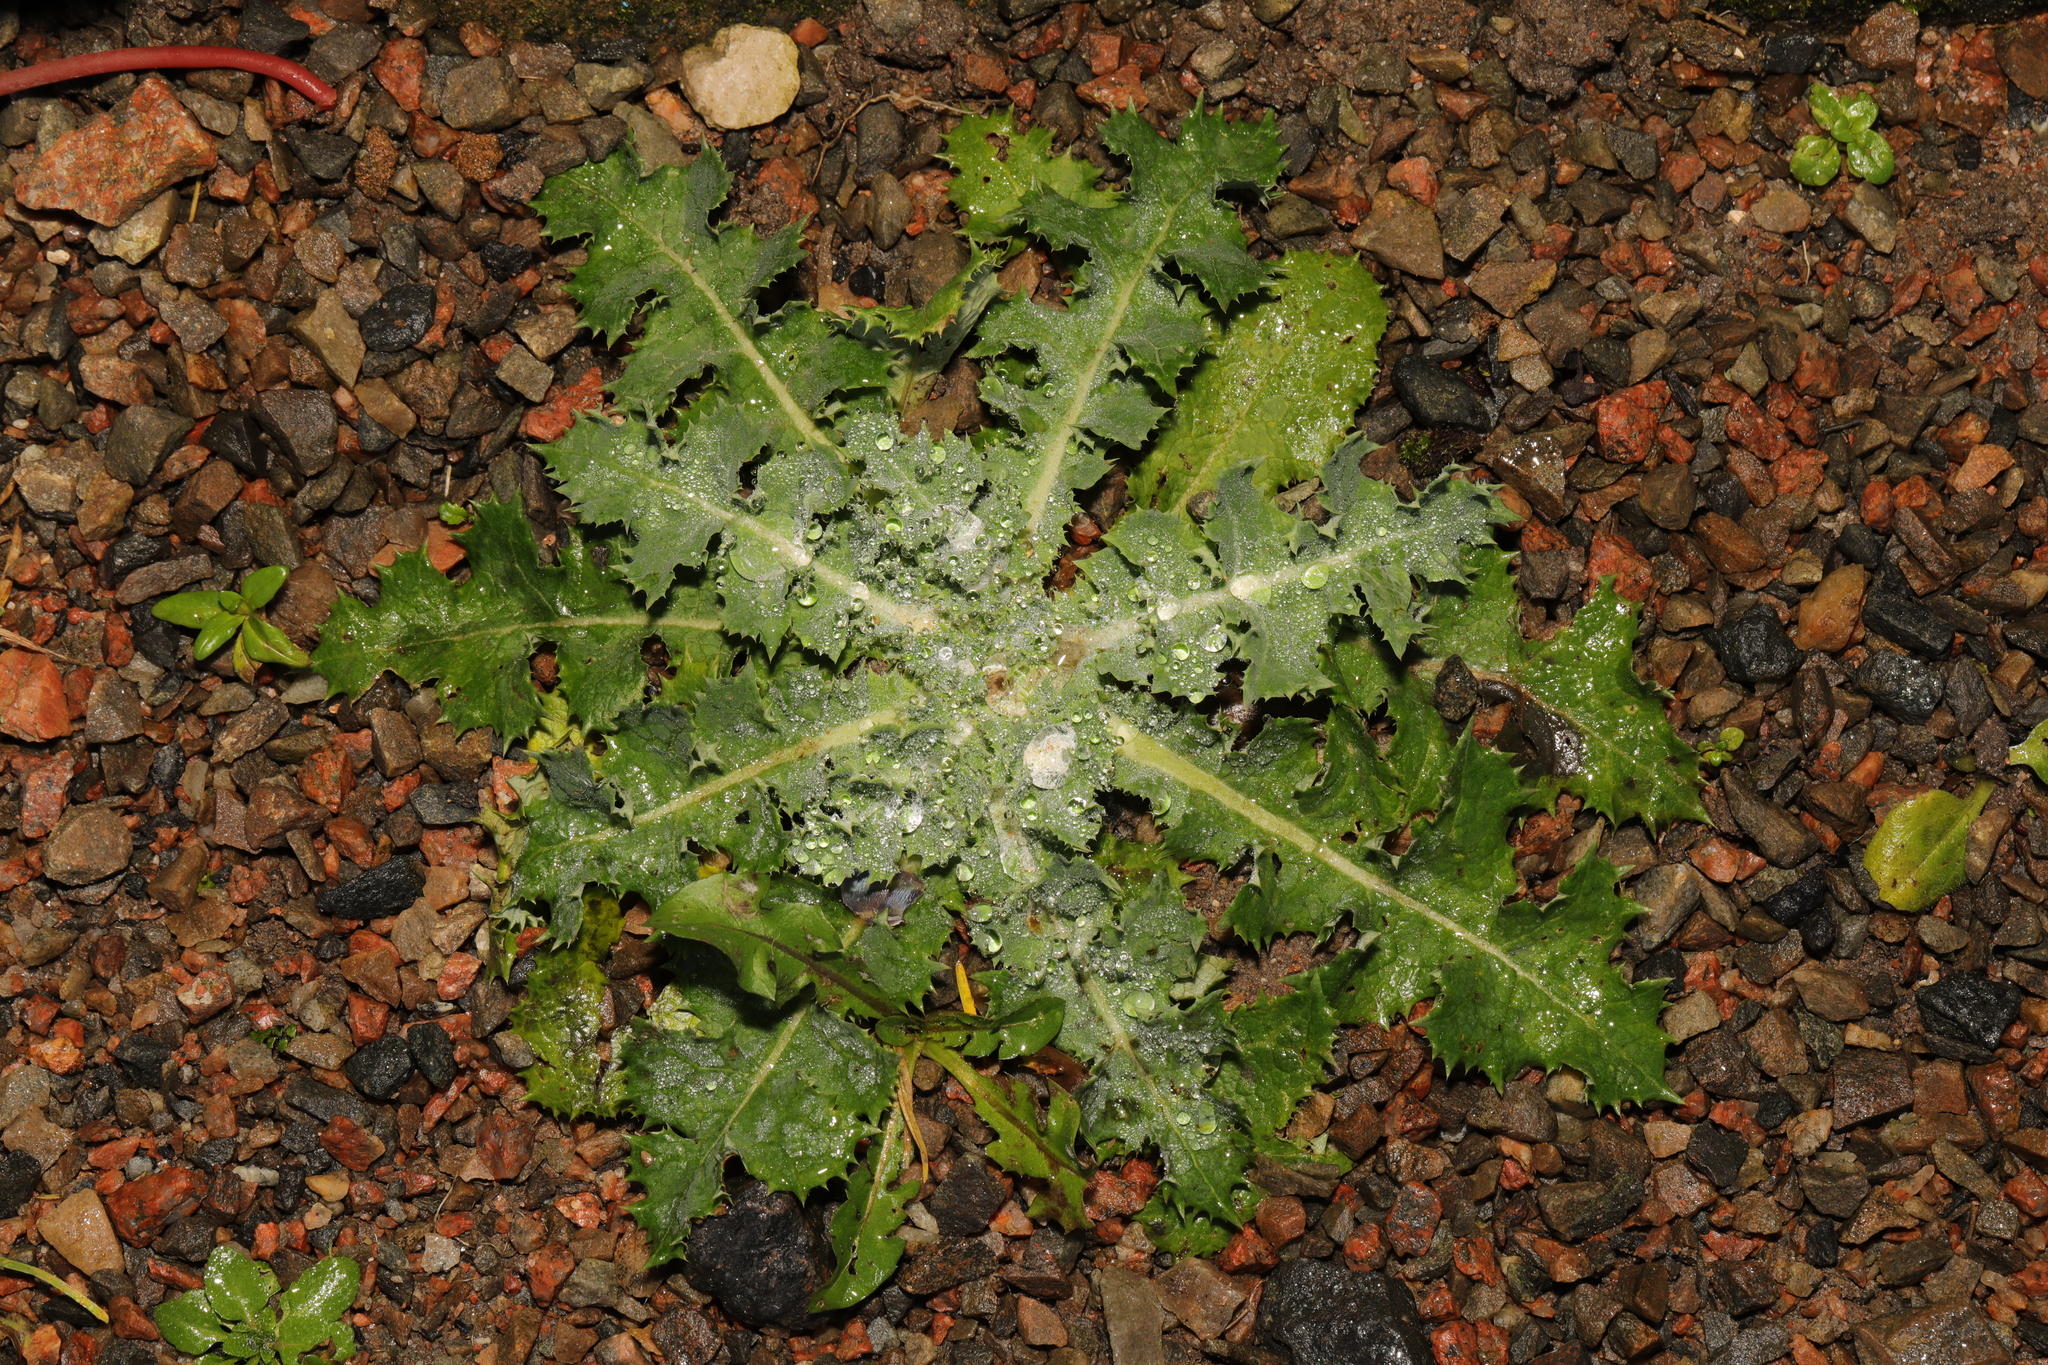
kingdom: Plantae
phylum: Tracheophyta
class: Magnoliopsida
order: Asterales
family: Asteraceae
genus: Sonchus
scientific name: Sonchus asper
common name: Prickly sow-thistle
